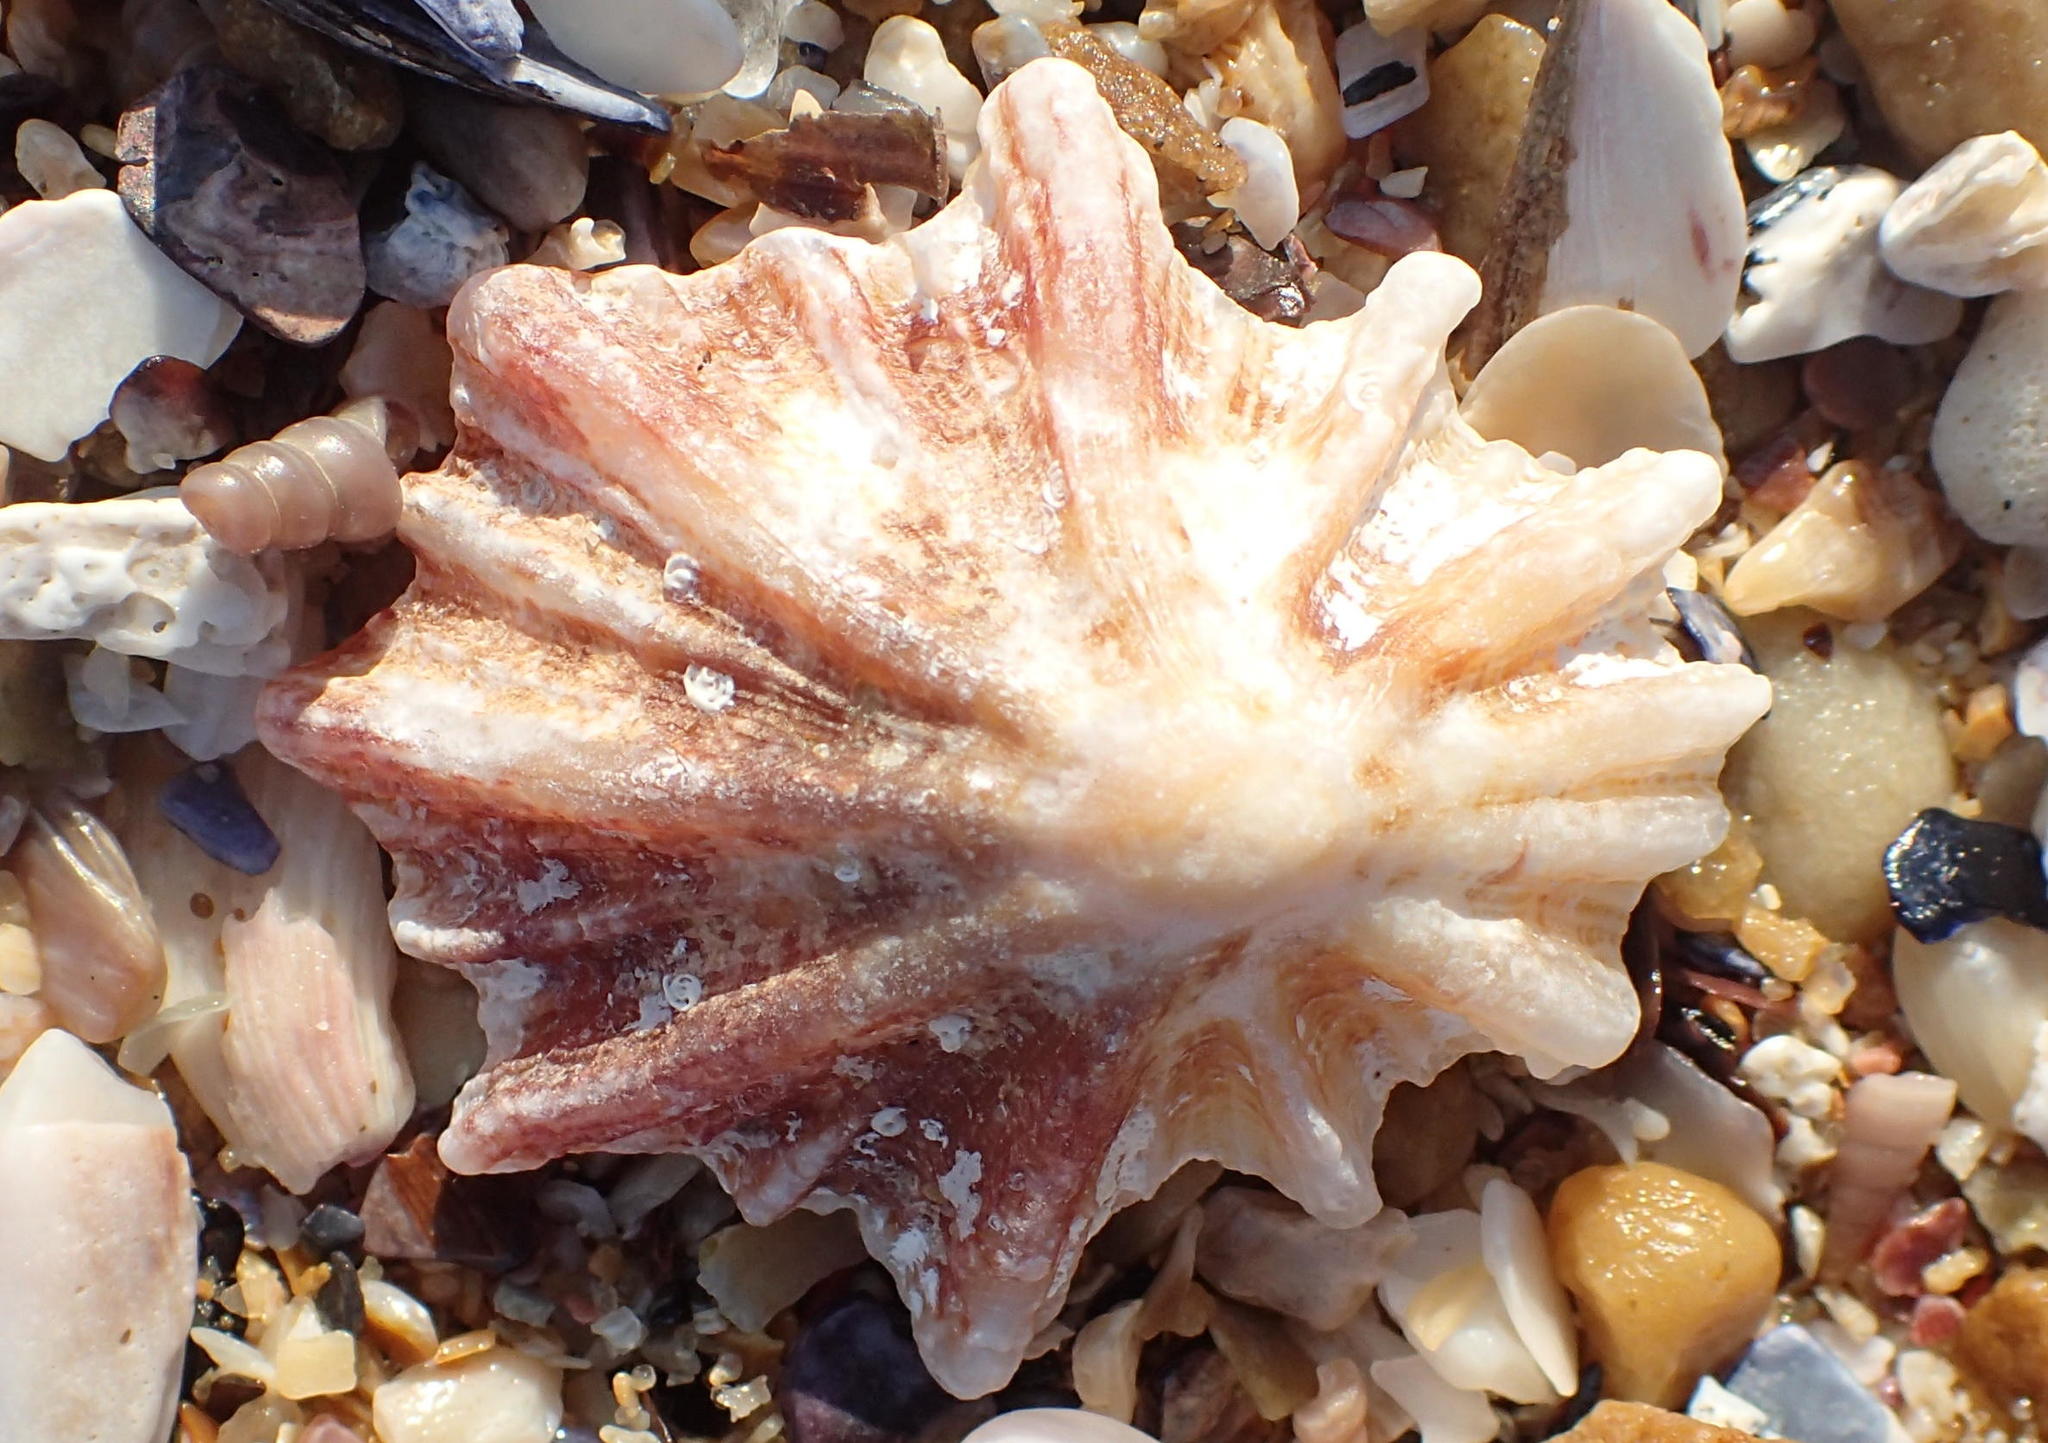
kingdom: Animalia
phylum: Mollusca
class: Gastropoda
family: Patellidae
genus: Scutellastra
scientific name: Scutellastra longicosta
